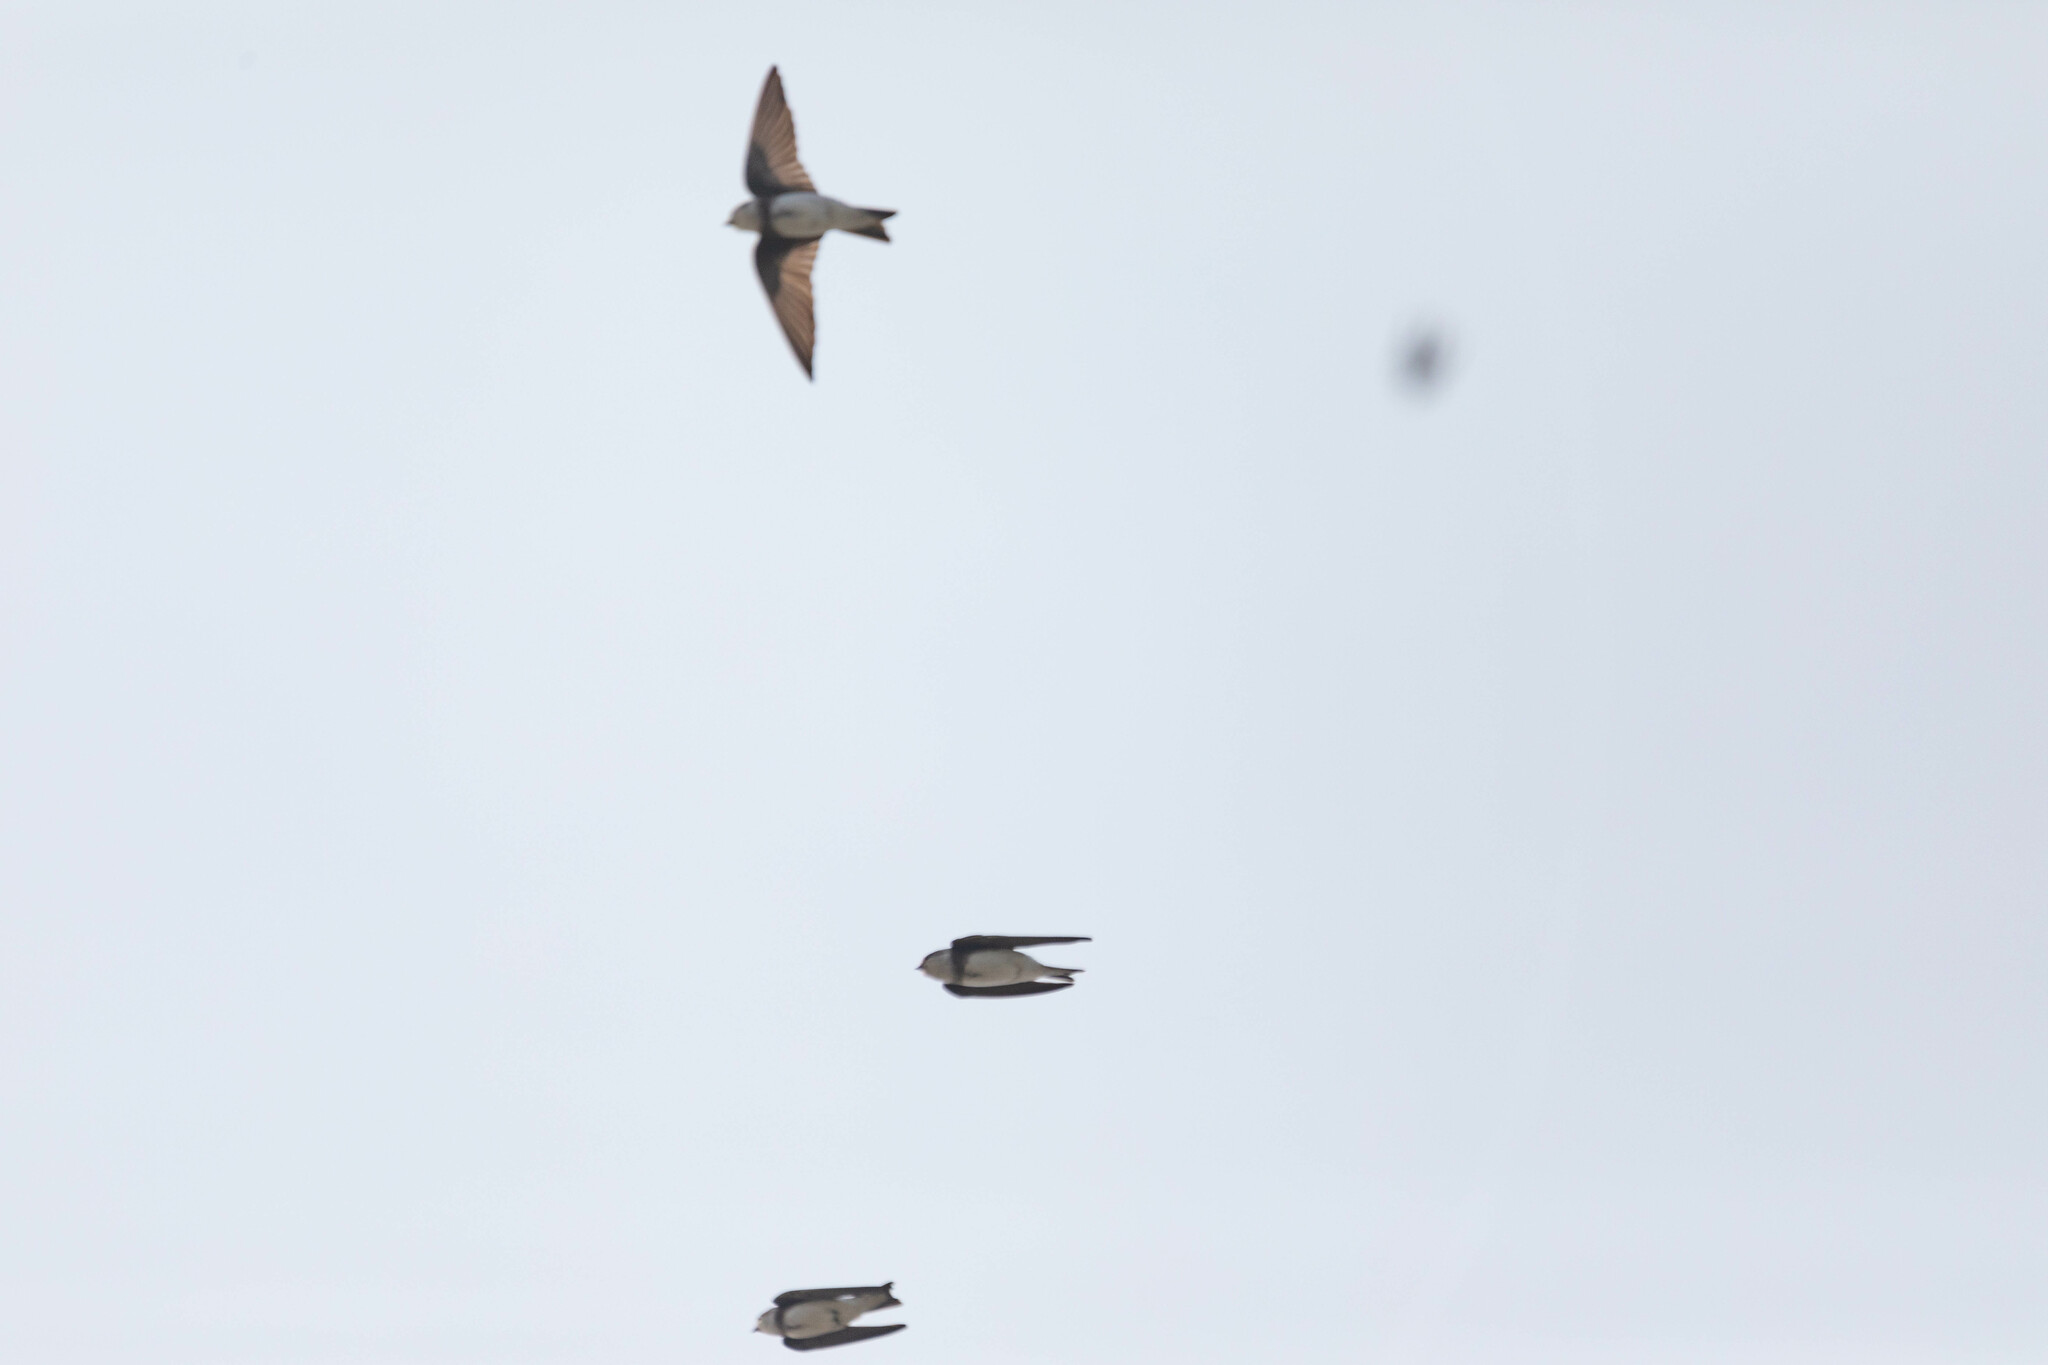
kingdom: Animalia
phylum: Chordata
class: Aves
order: Passeriformes
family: Hirundinidae
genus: Riparia
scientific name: Riparia riparia
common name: Sand martin
